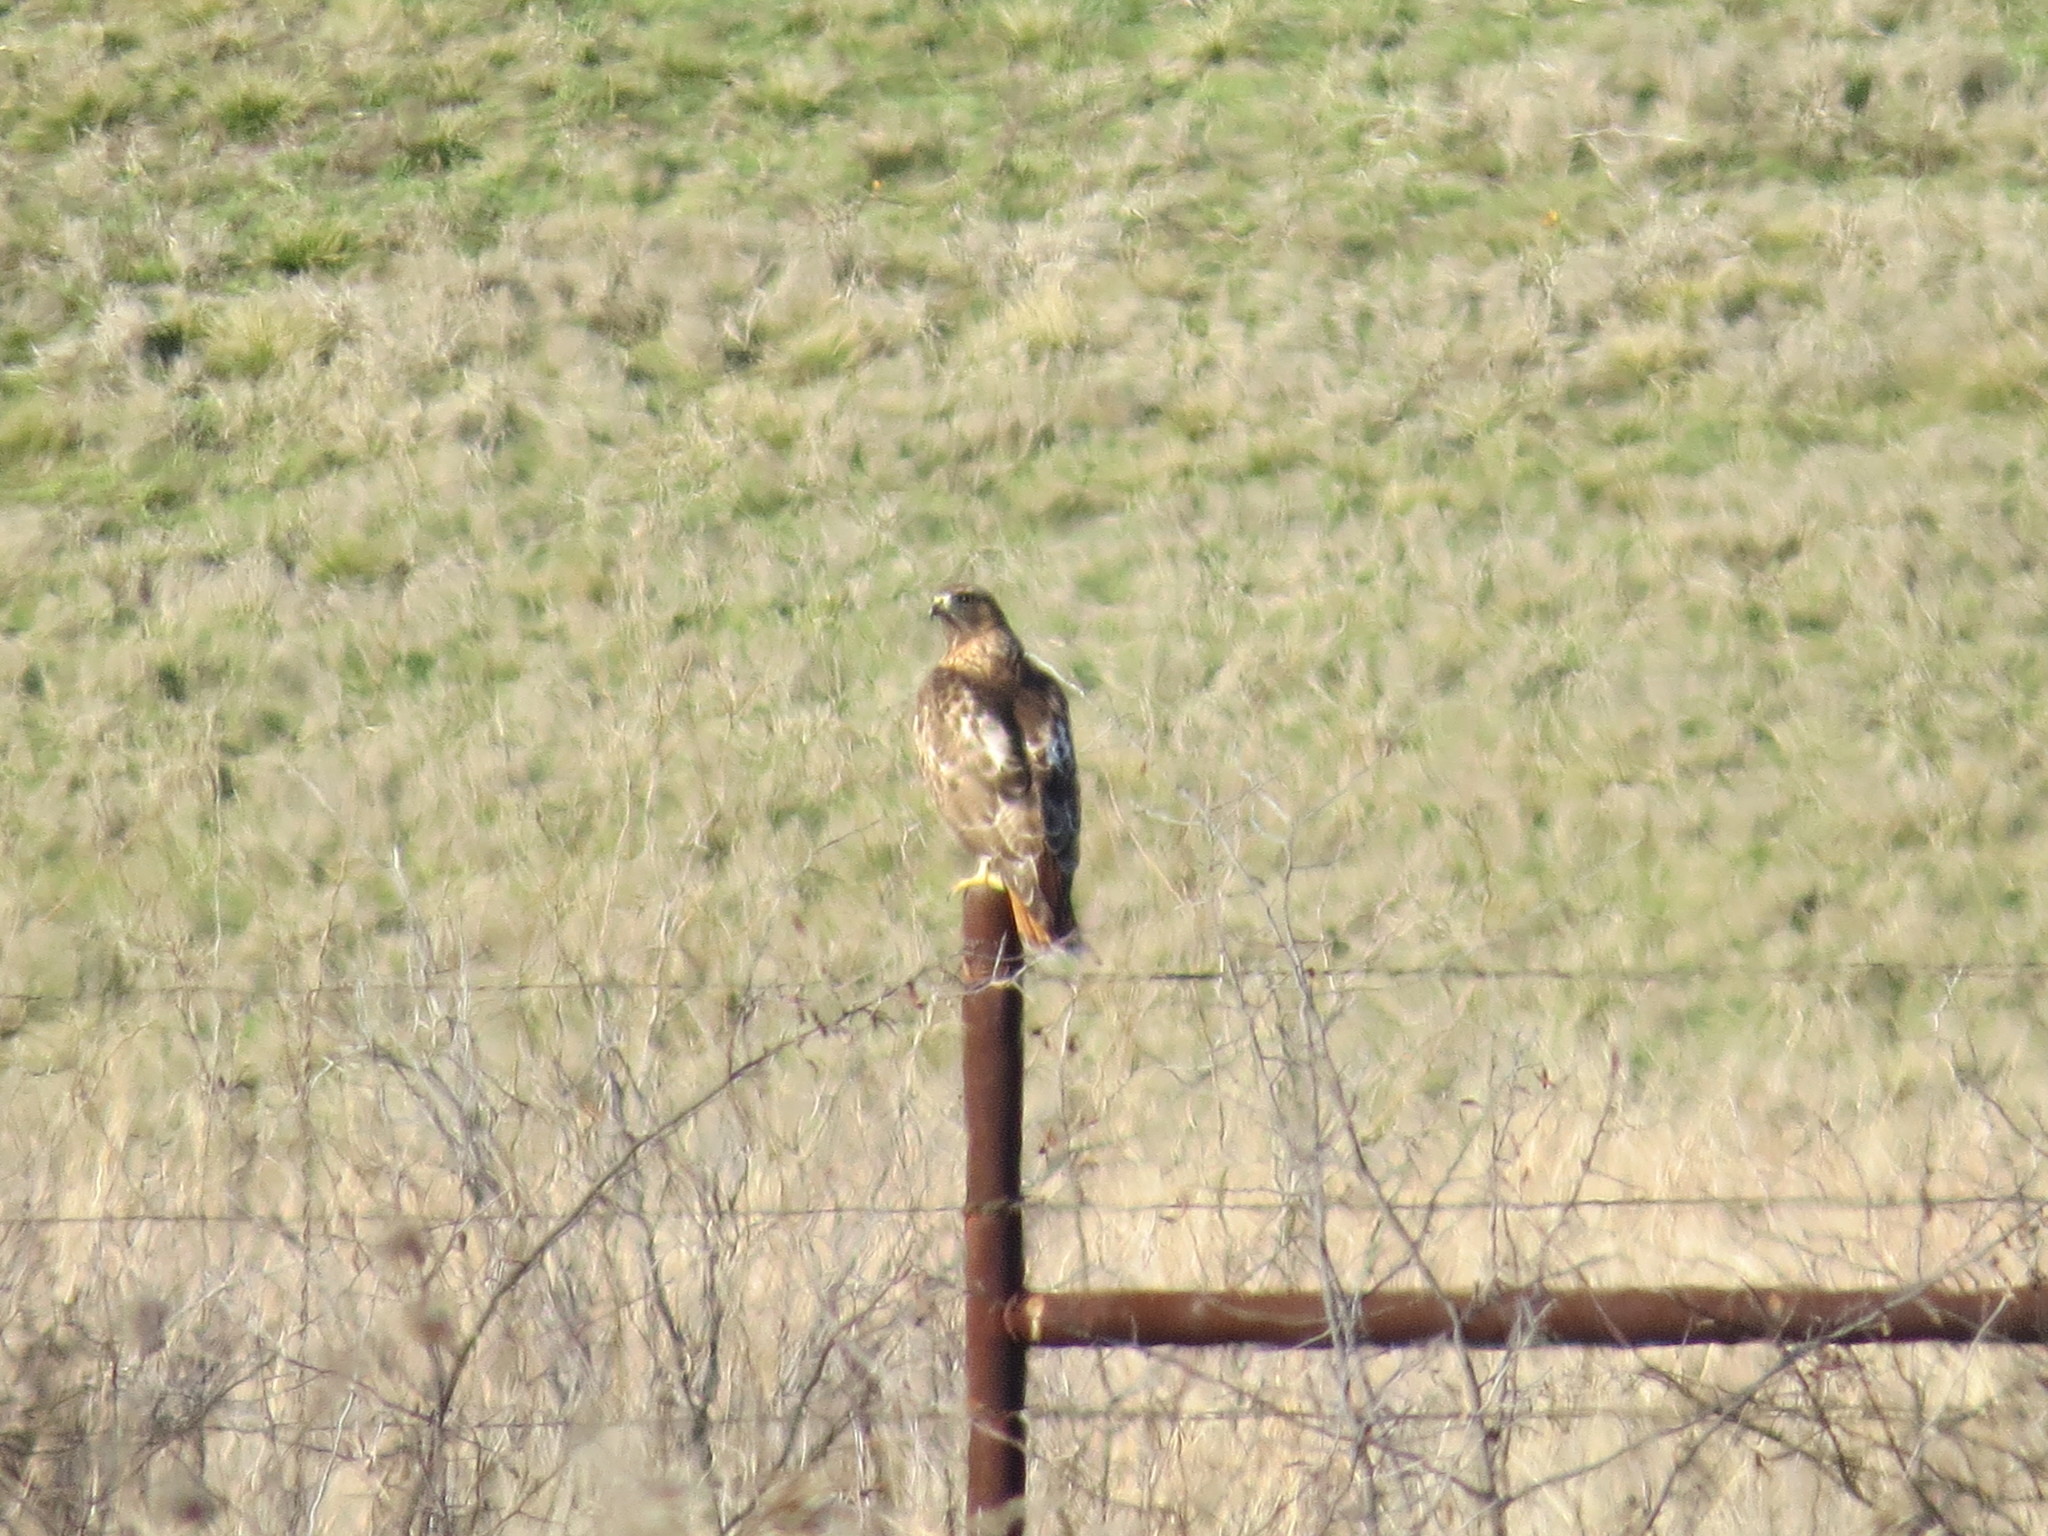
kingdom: Animalia
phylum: Chordata
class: Aves
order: Accipitriformes
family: Accipitridae
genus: Buteo
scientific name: Buteo jamaicensis
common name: Red-tailed hawk
